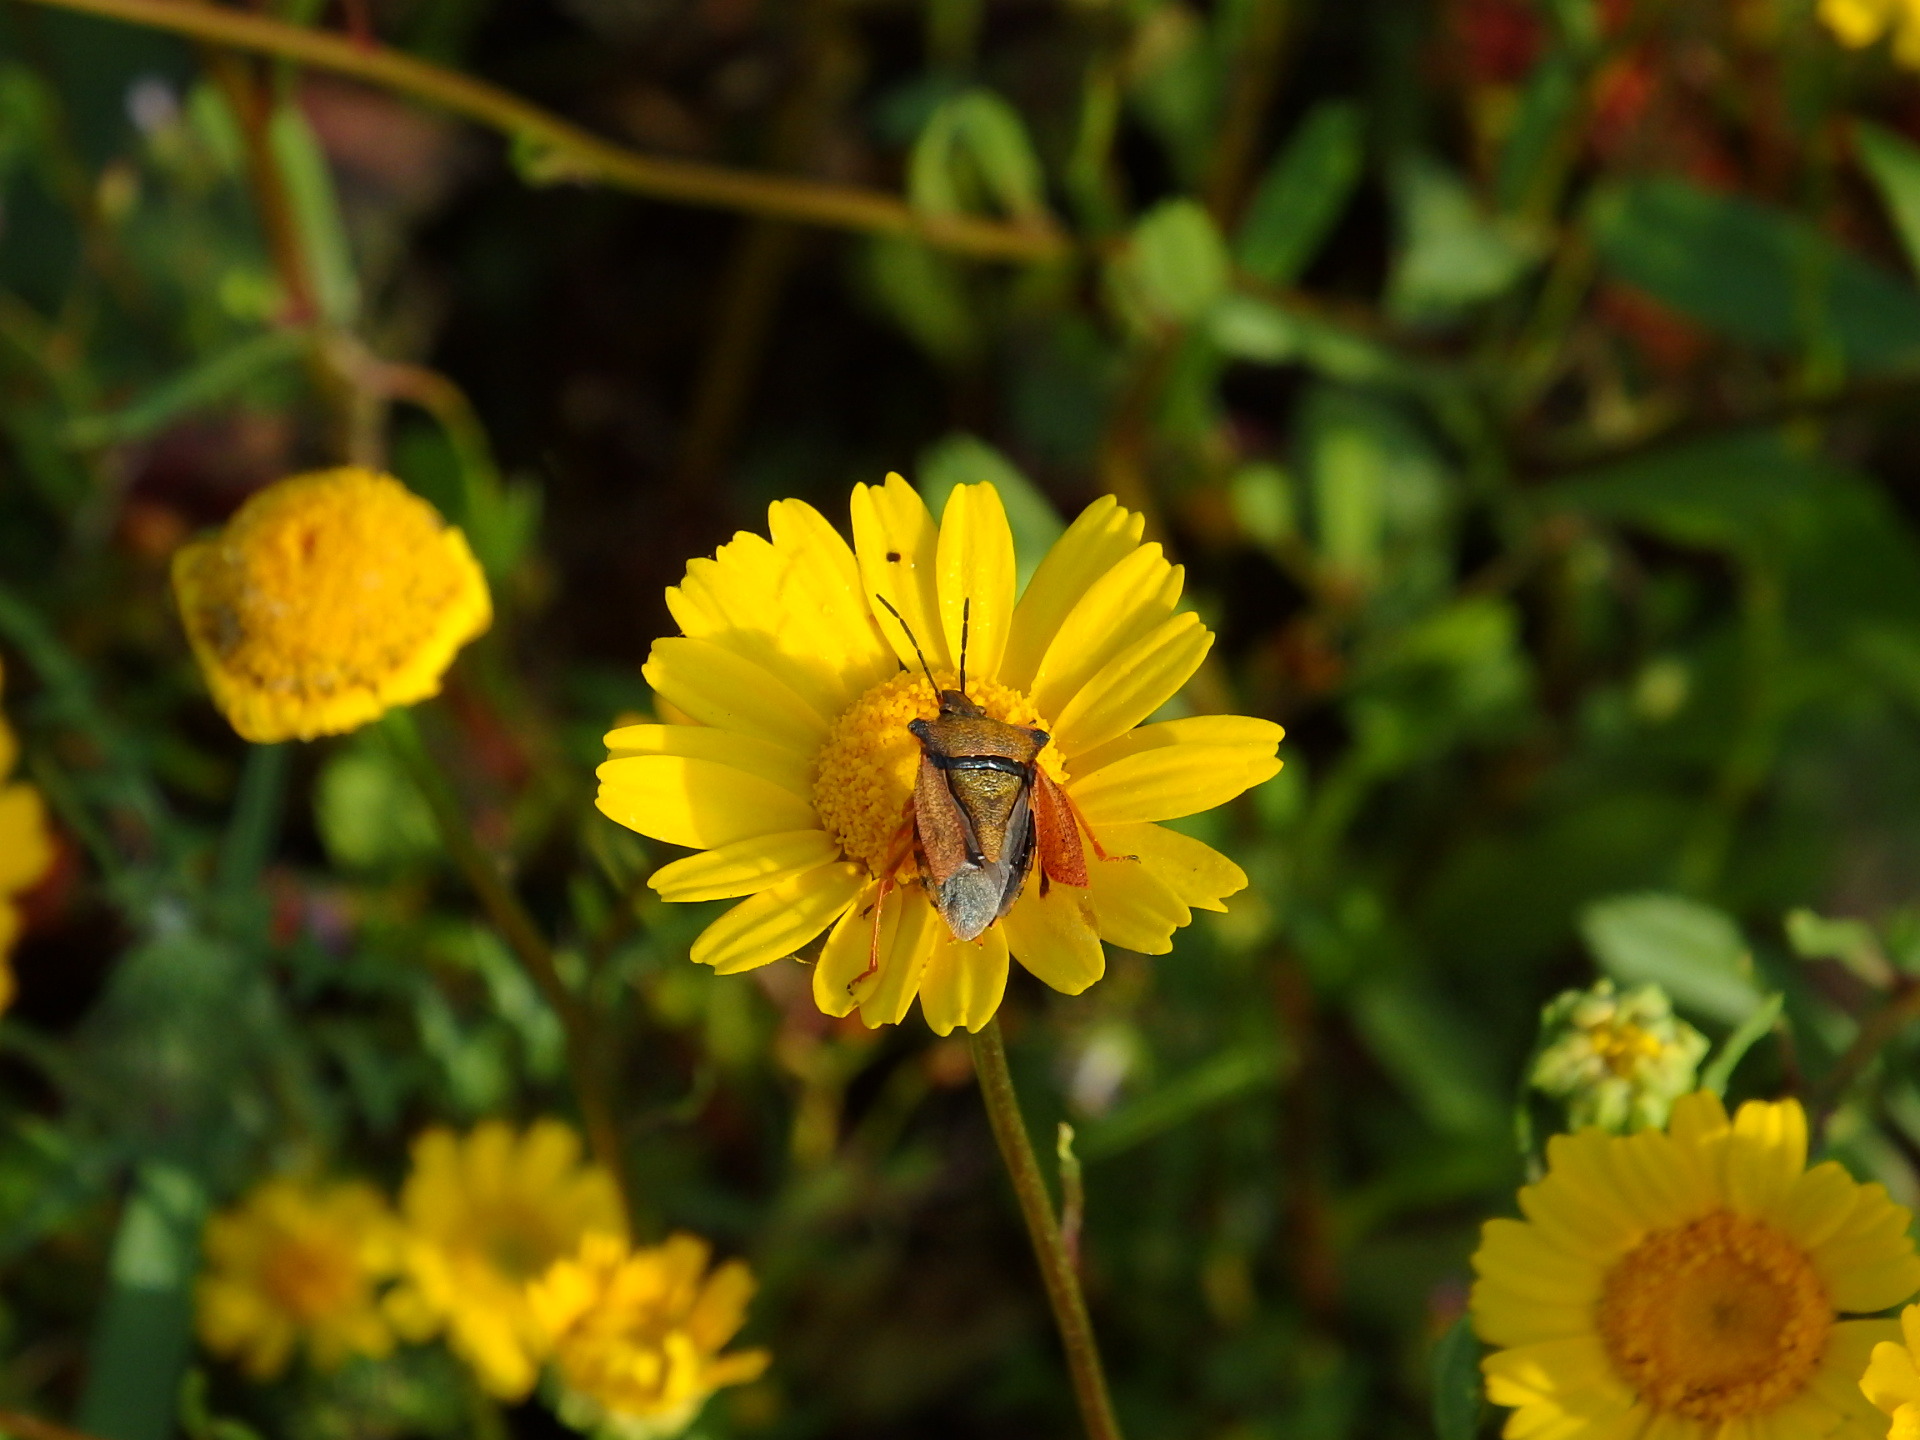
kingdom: Animalia
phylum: Arthropoda
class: Insecta
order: Hemiptera
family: Pentatomidae
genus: Carpocoris
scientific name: Carpocoris mediterraneus
